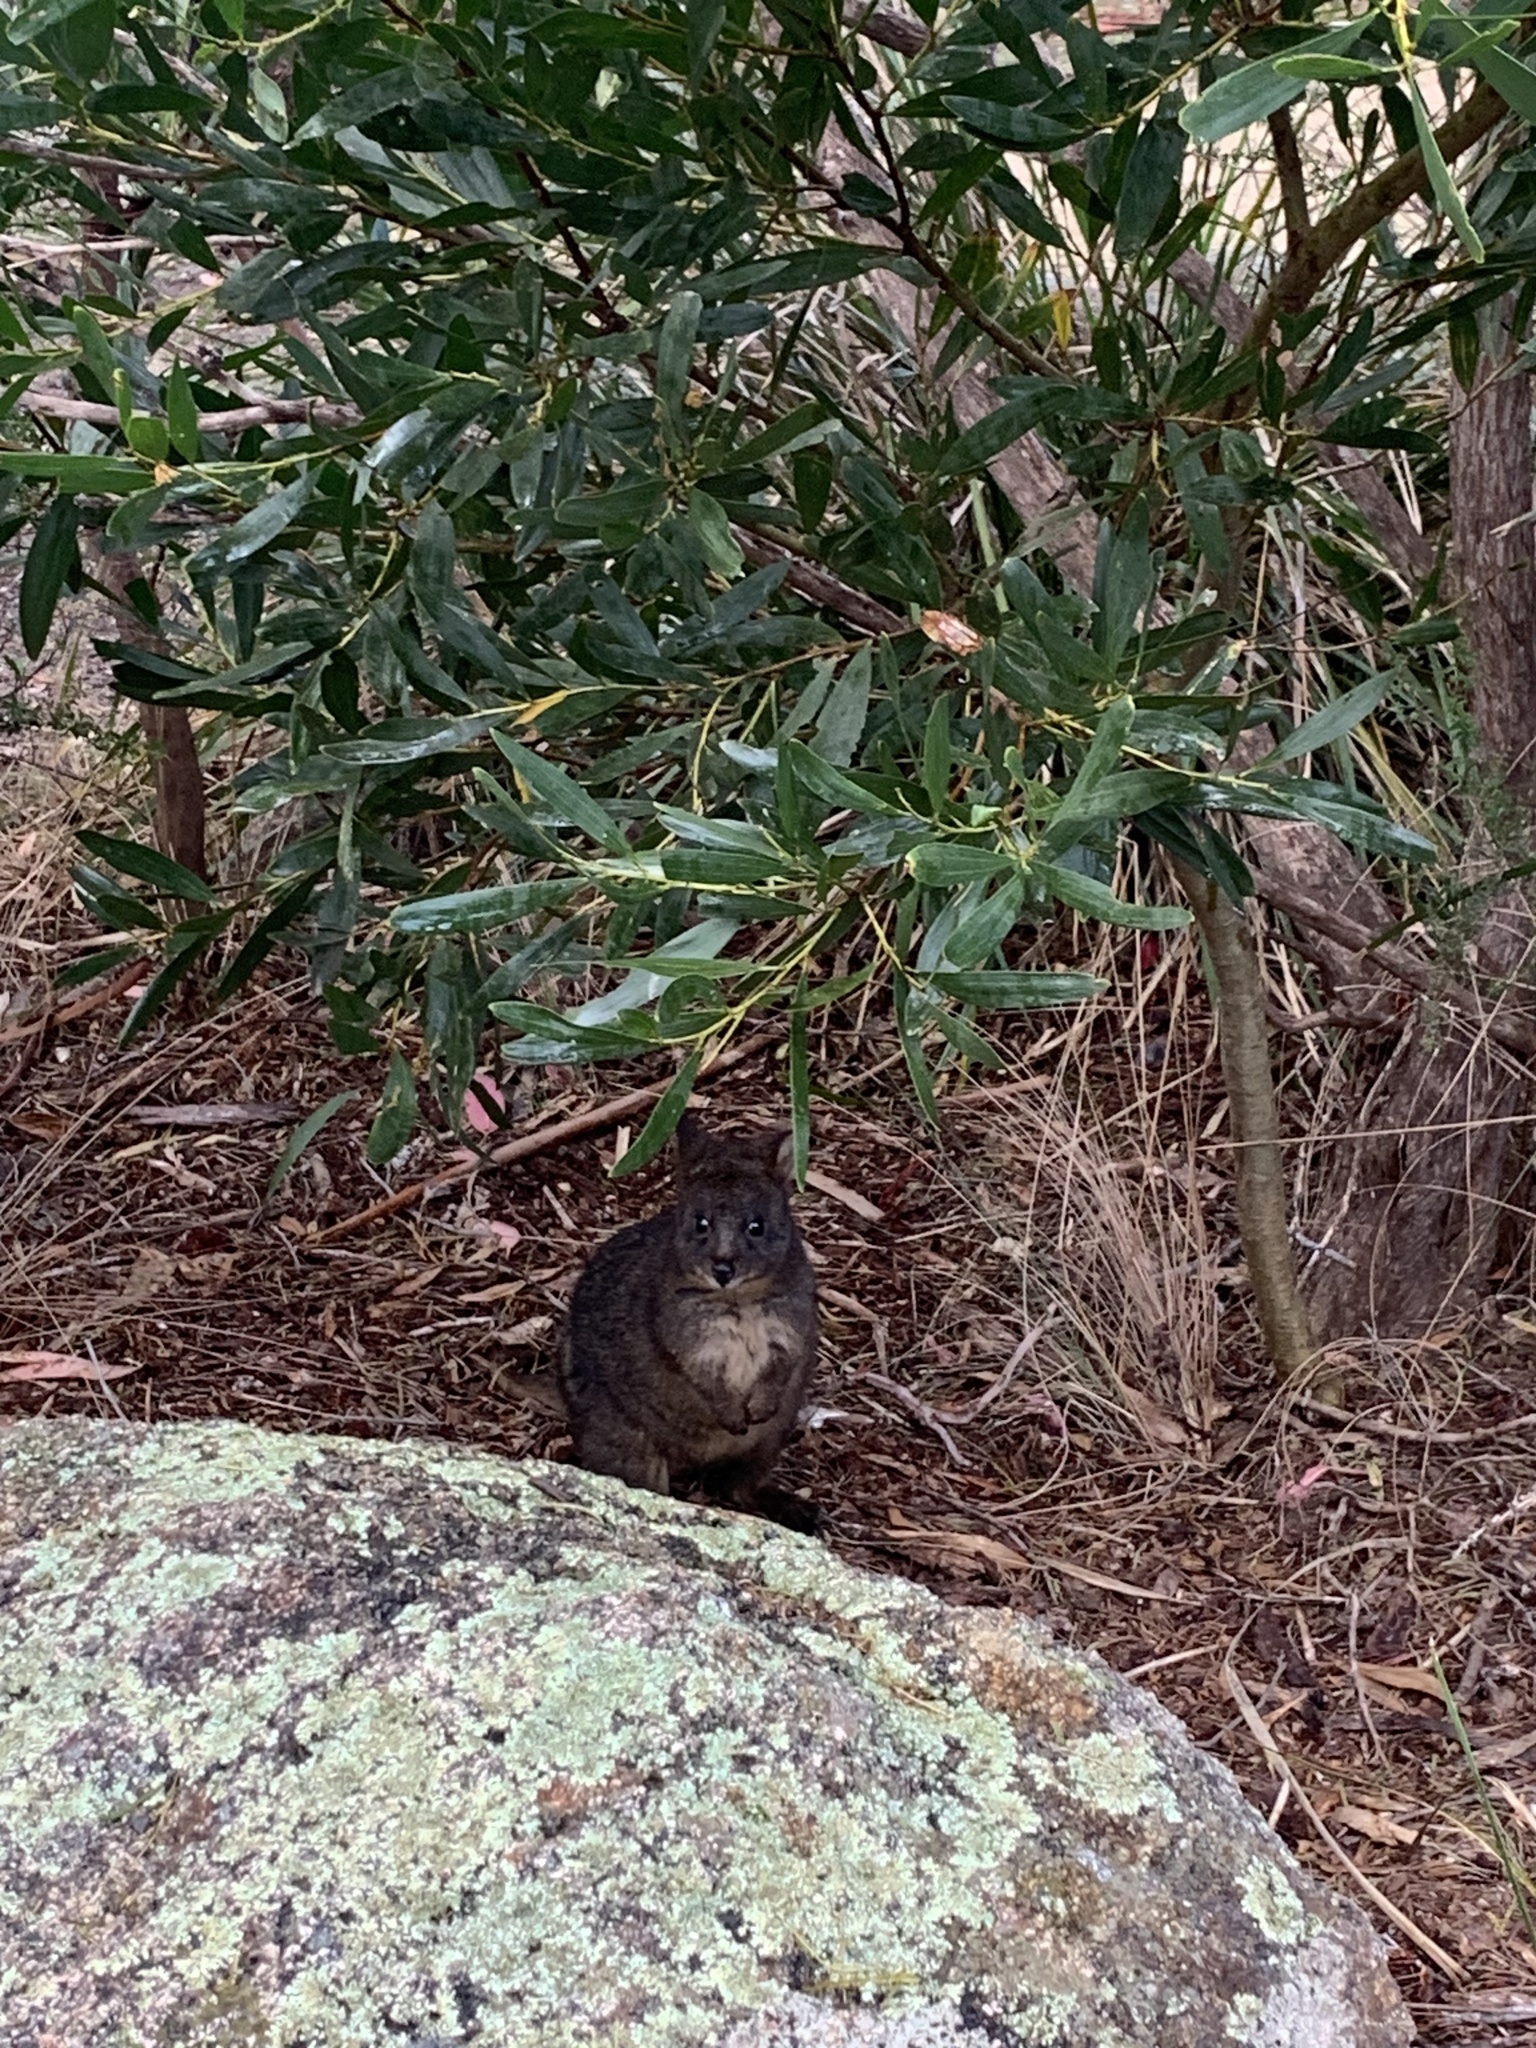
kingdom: Animalia
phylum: Chordata
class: Mammalia
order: Diprotodontia
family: Macropodidae
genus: Thylogale
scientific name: Thylogale billardierii
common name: Tasmanian pademelon
